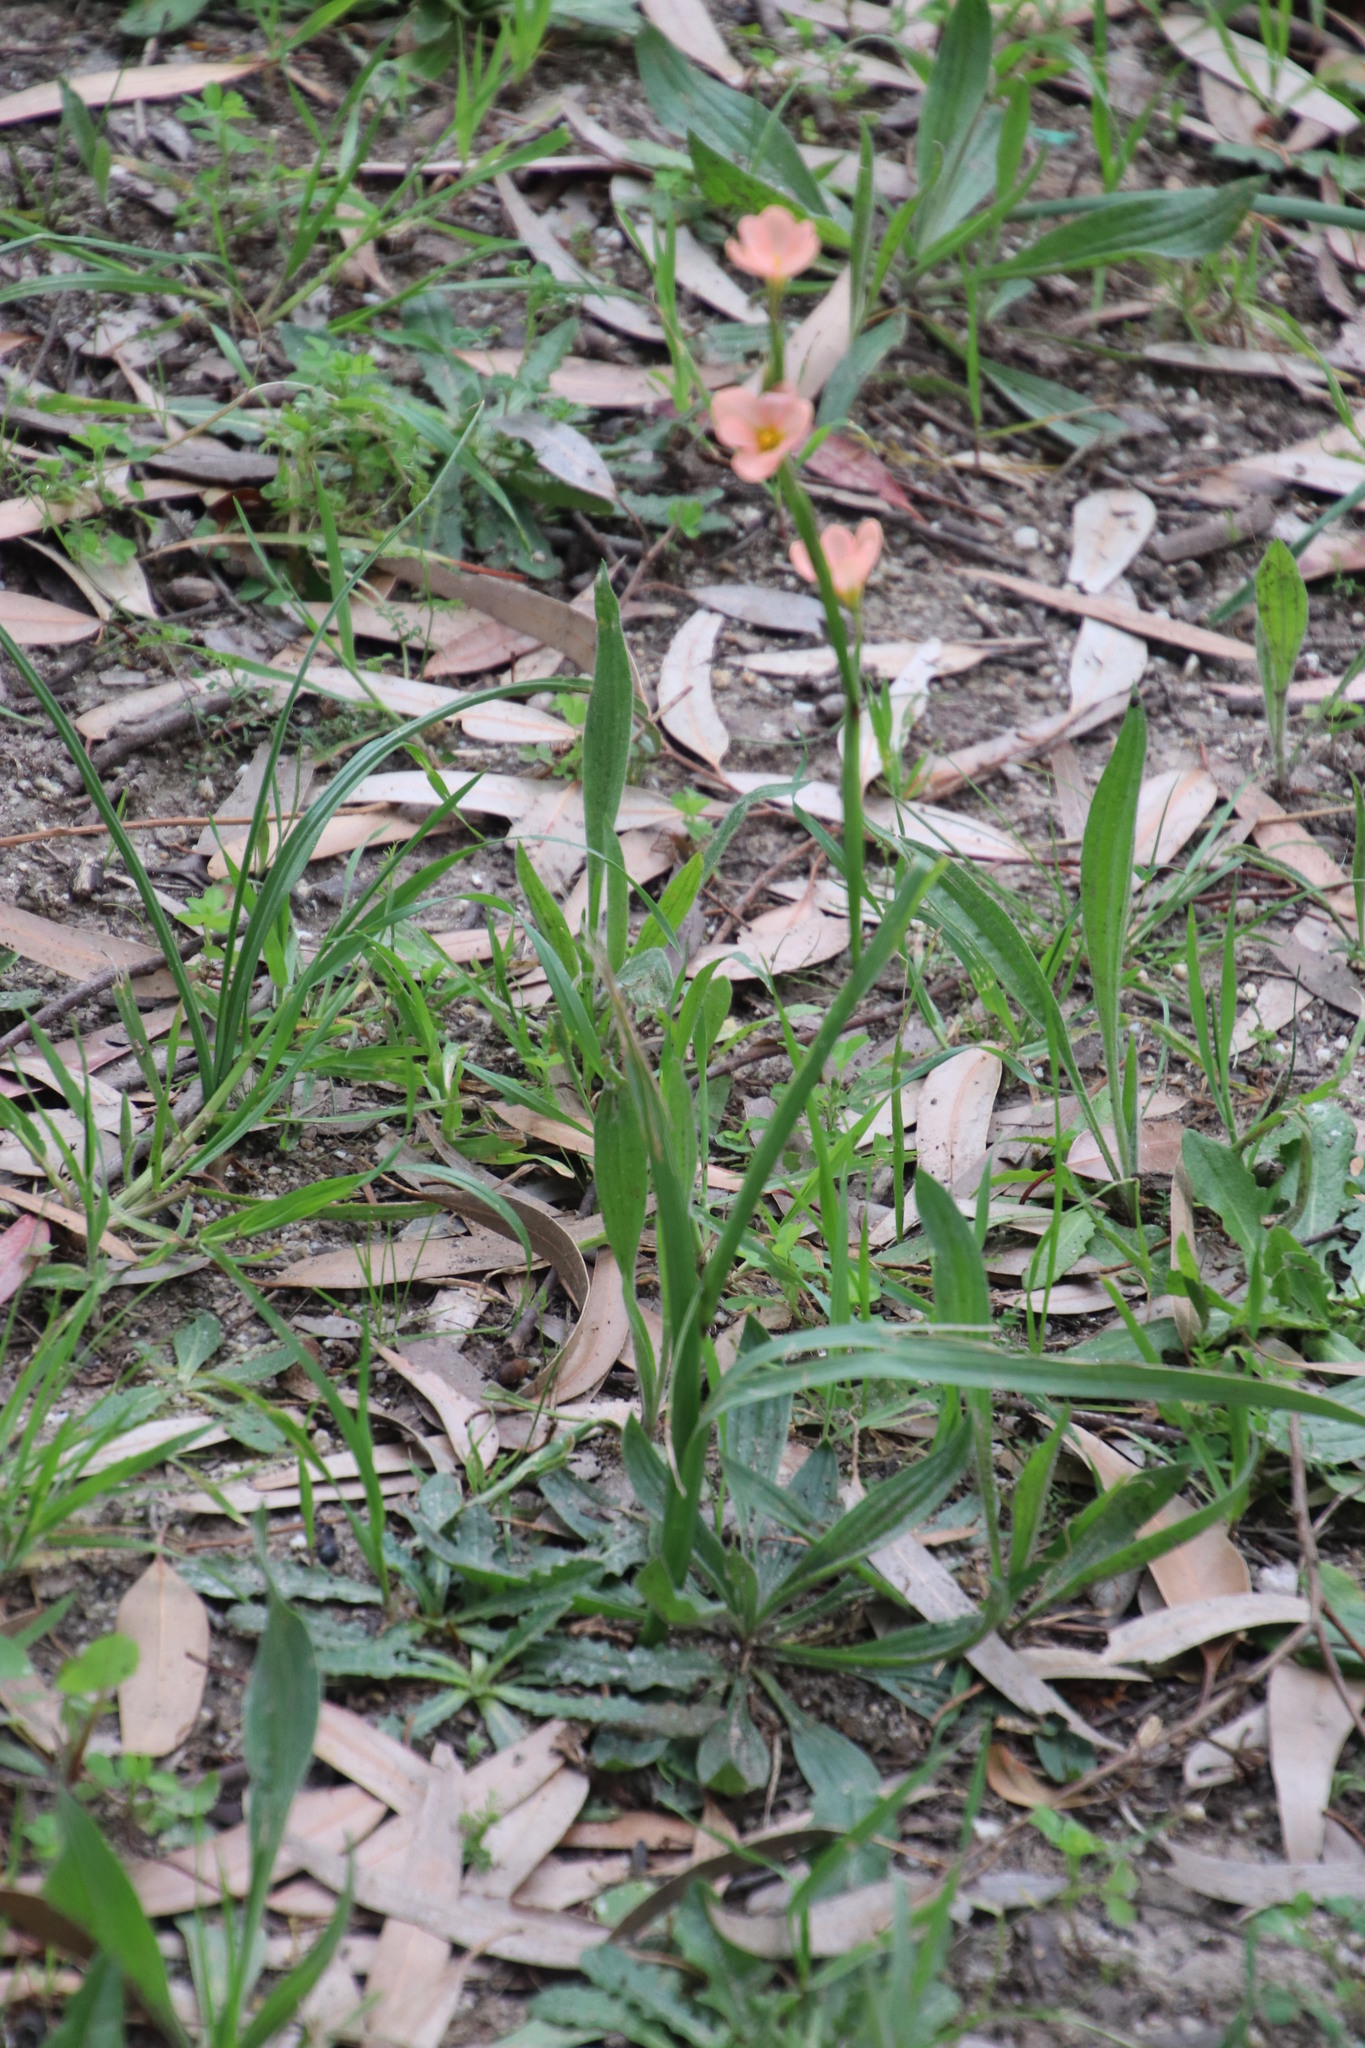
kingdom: Plantae
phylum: Tracheophyta
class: Liliopsida
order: Asparagales
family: Iridaceae
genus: Moraea
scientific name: Moraea miniata
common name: Two-leaf cape-tulip
